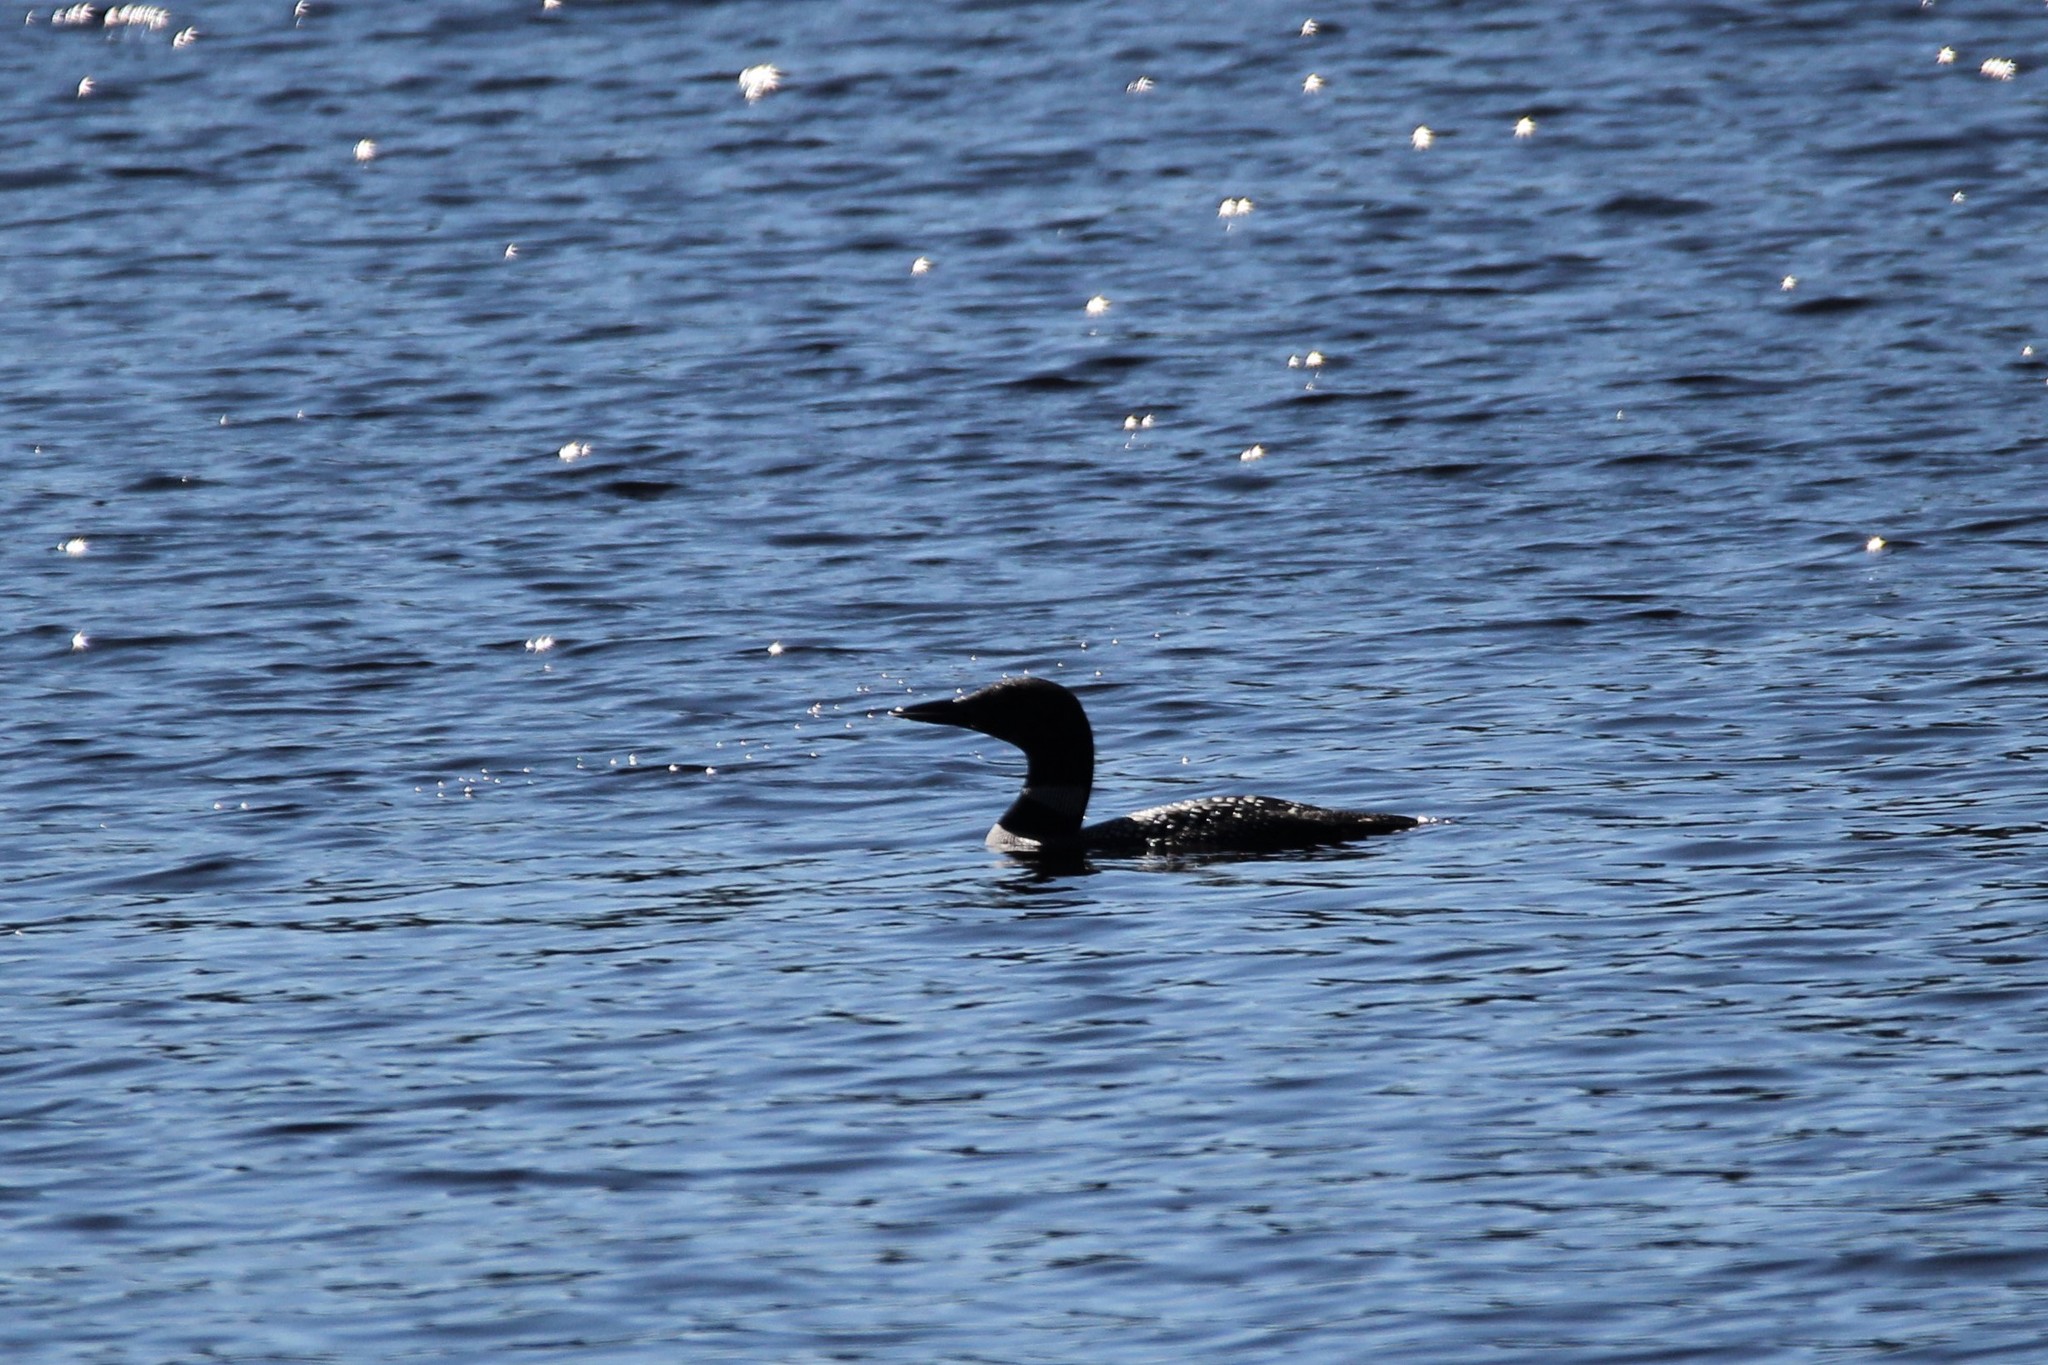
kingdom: Animalia
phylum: Chordata
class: Aves
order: Gaviiformes
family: Gaviidae
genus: Gavia
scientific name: Gavia immer
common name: Common loon
